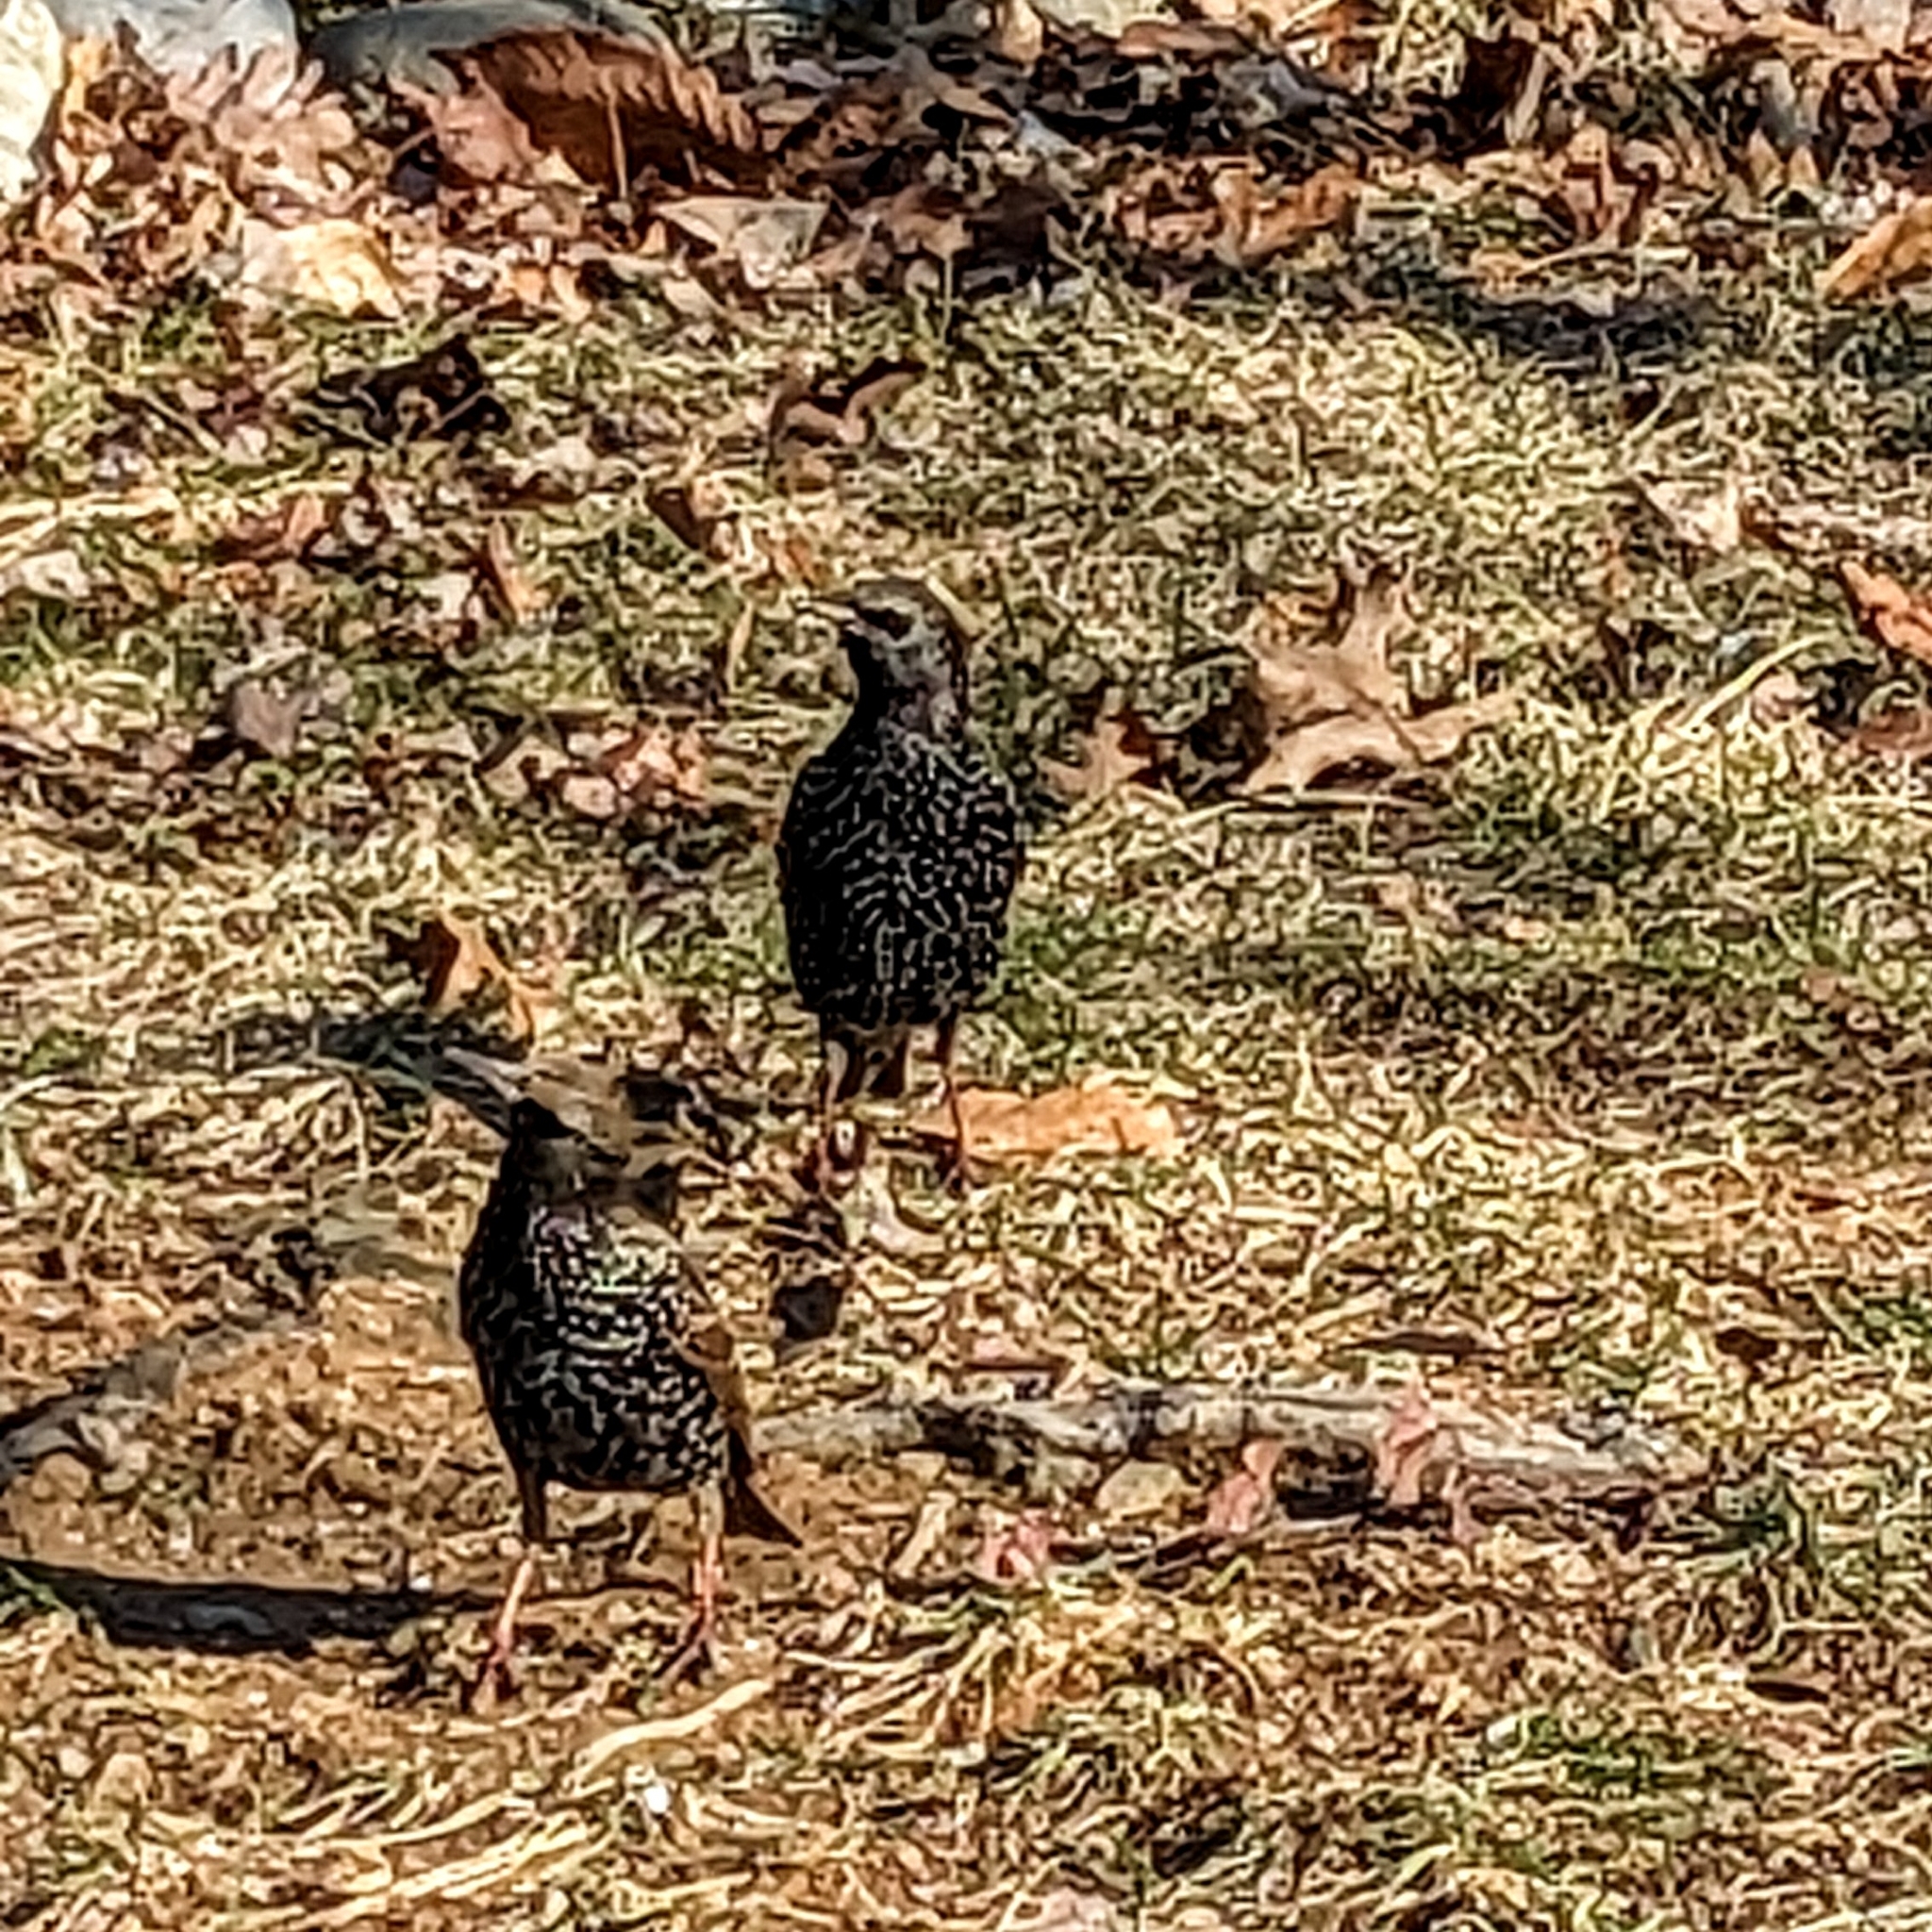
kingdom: Animalia
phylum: Chordata
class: Aves
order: Passeriformes
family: Sturnidae
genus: Sturnus
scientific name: Sturnus vulgaris
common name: Common starling
